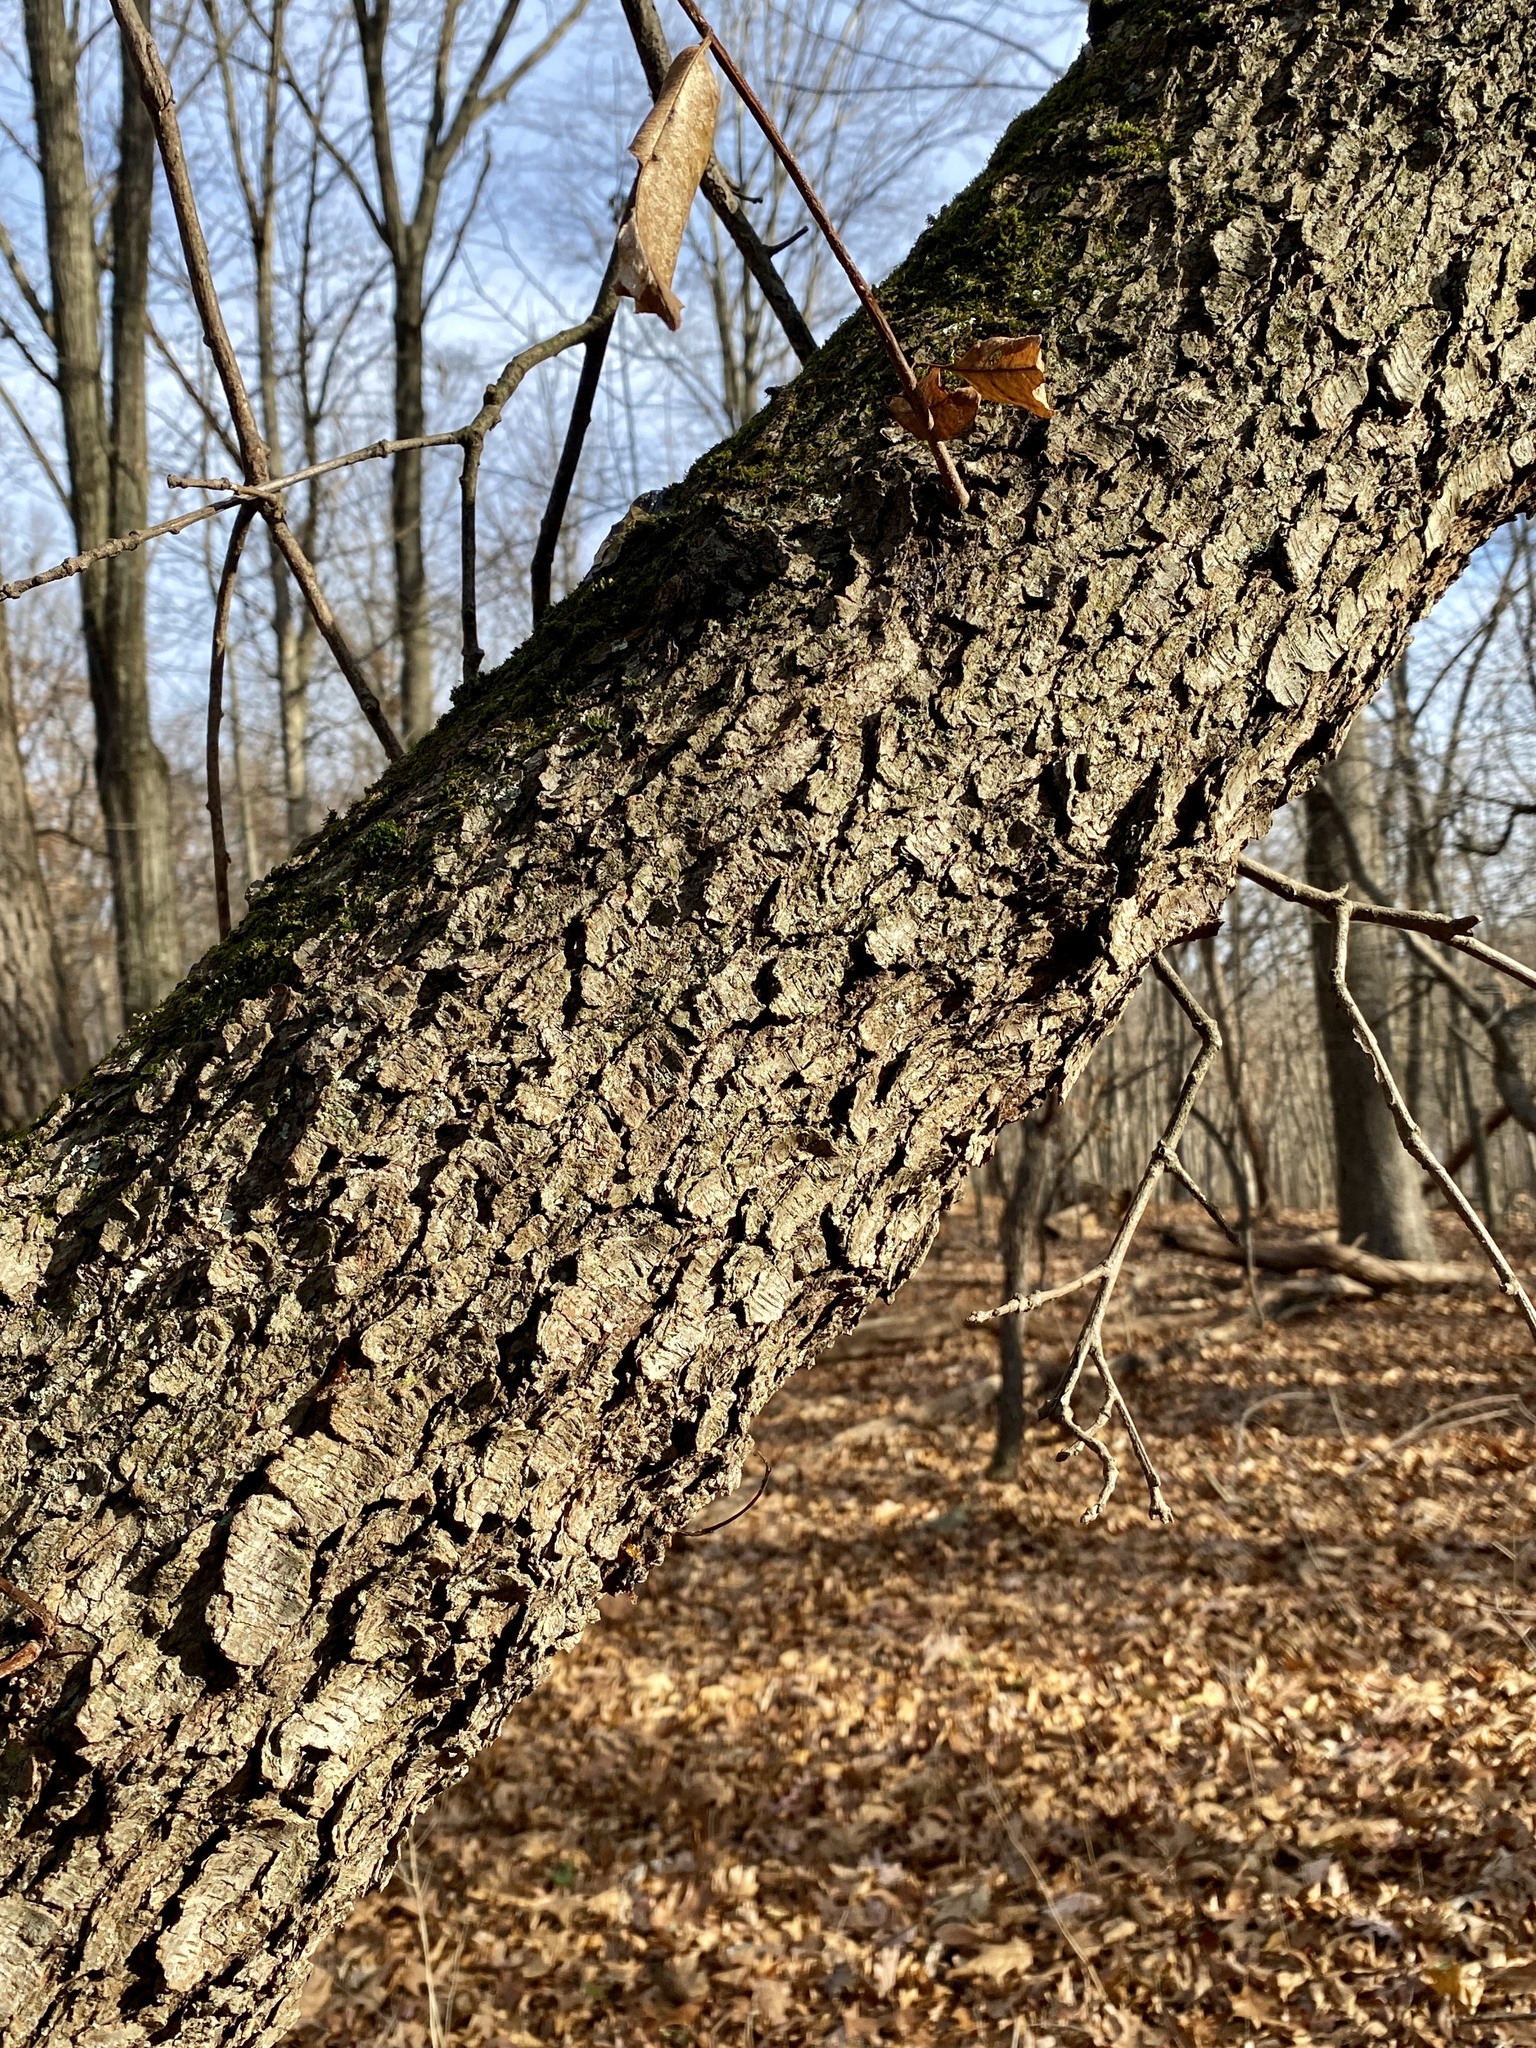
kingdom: Plantae
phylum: Tracheophyta
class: Magnoliopsida
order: Rosales
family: Rosaceae
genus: Prunus
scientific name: Prunus serotina
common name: Black cherry
